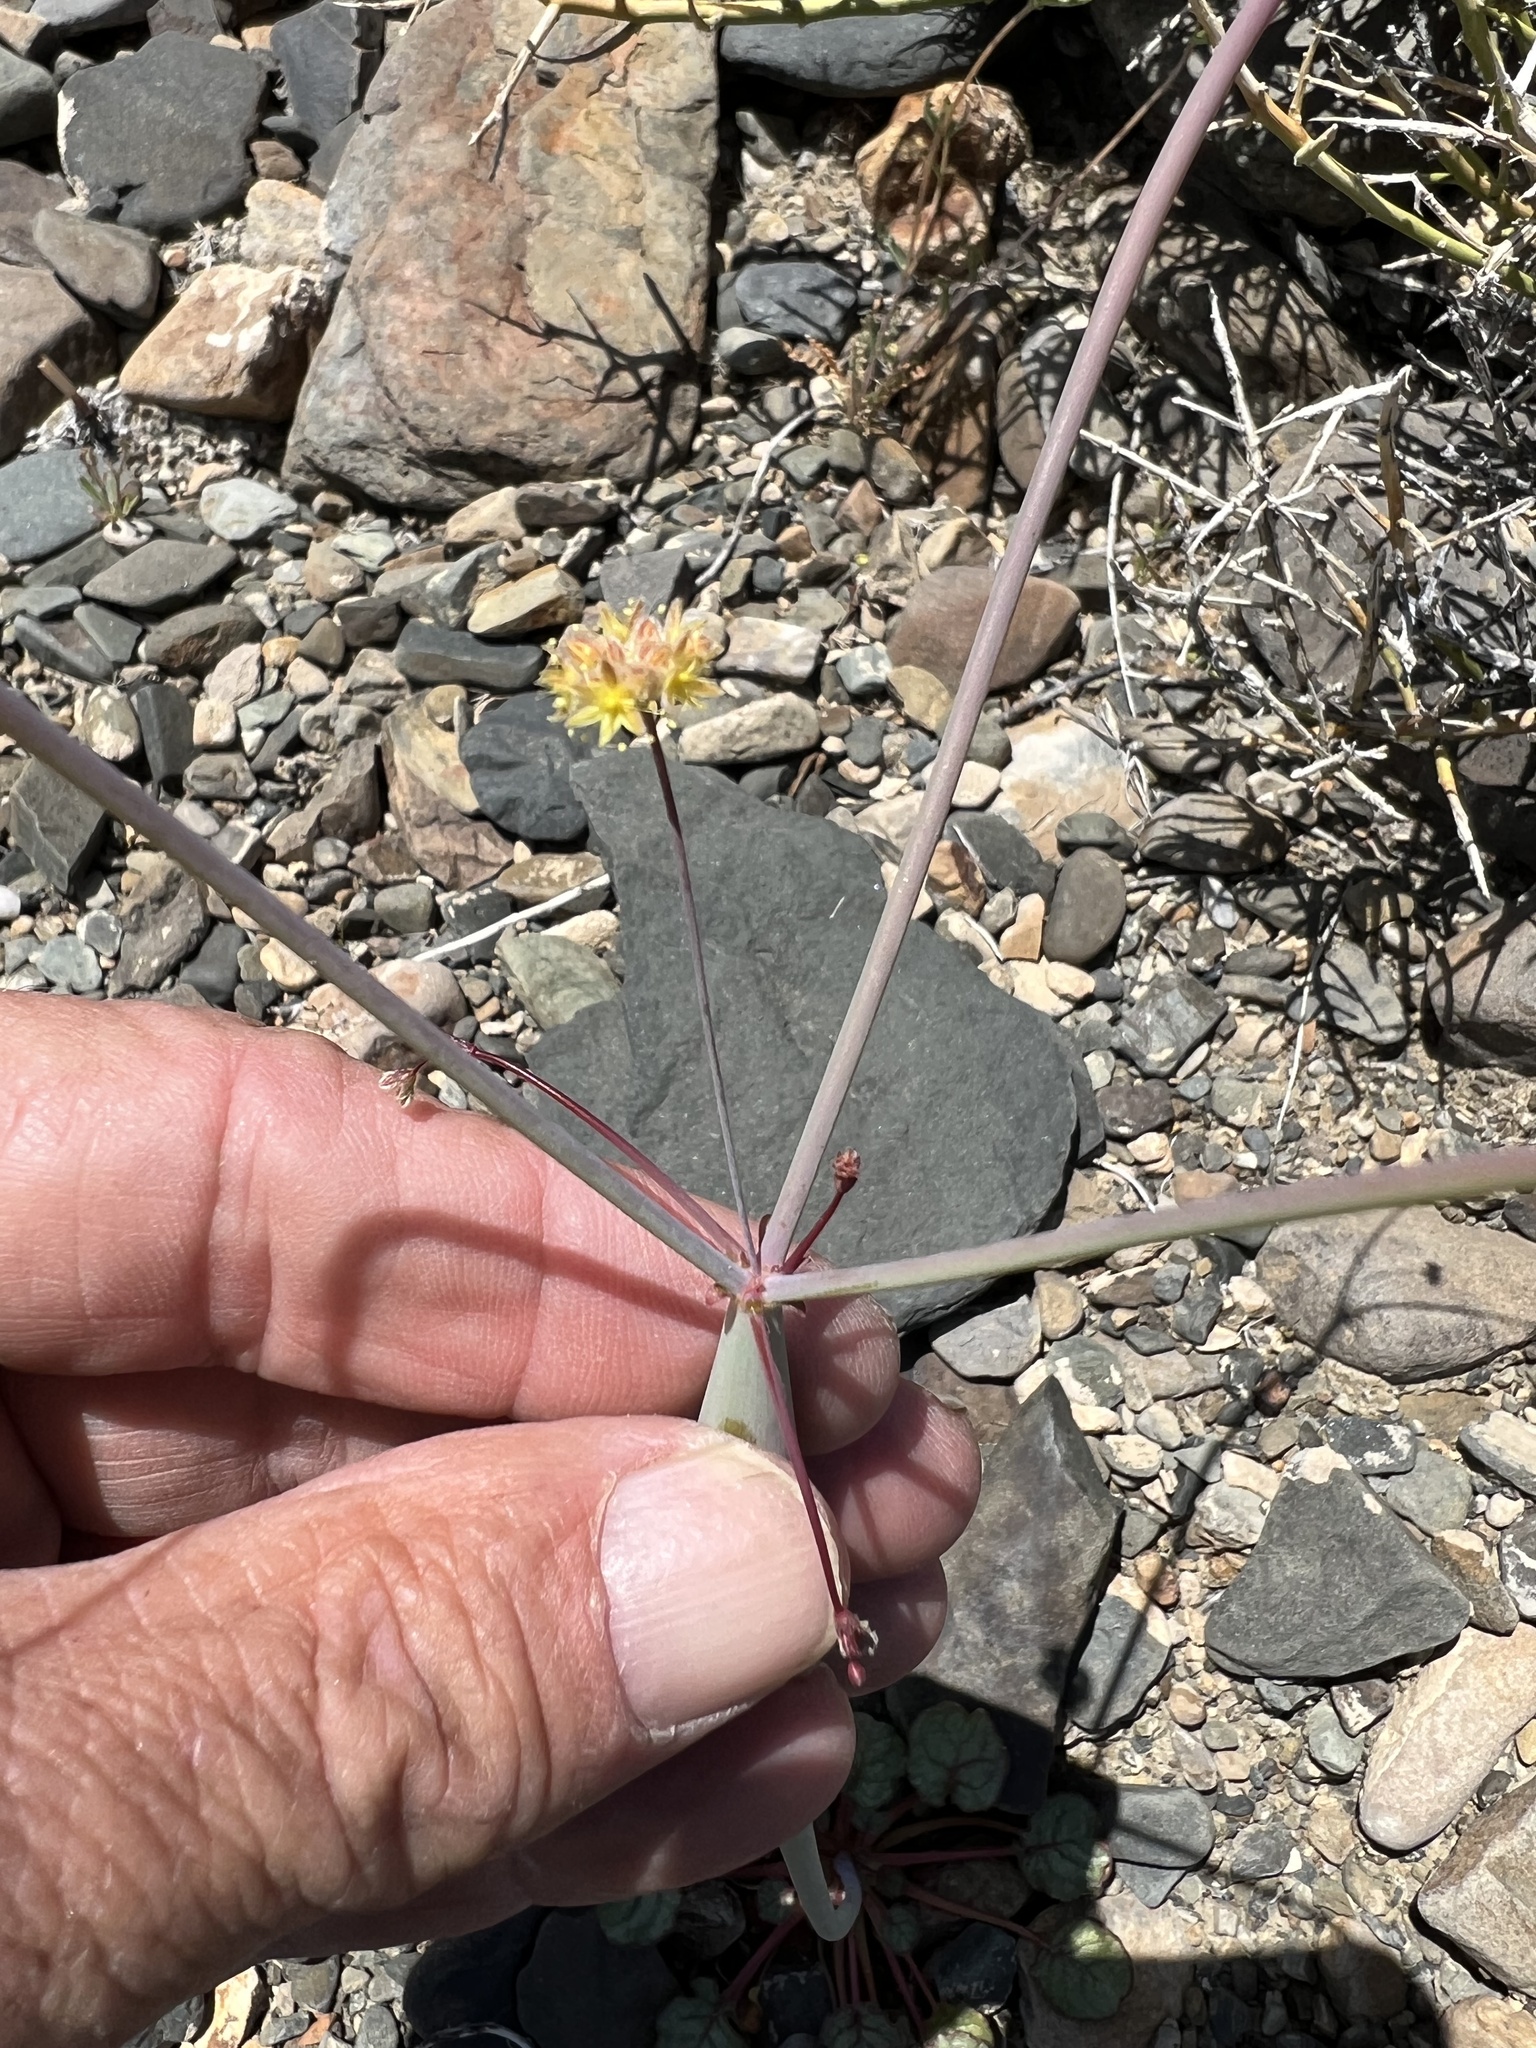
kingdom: Plantae
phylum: Tracheophyta
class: Magnoliopsida
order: Caryophyllales
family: Polygonaceae
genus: Eriogonum
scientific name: Eriogonum inflatum
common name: Desert trumpet
